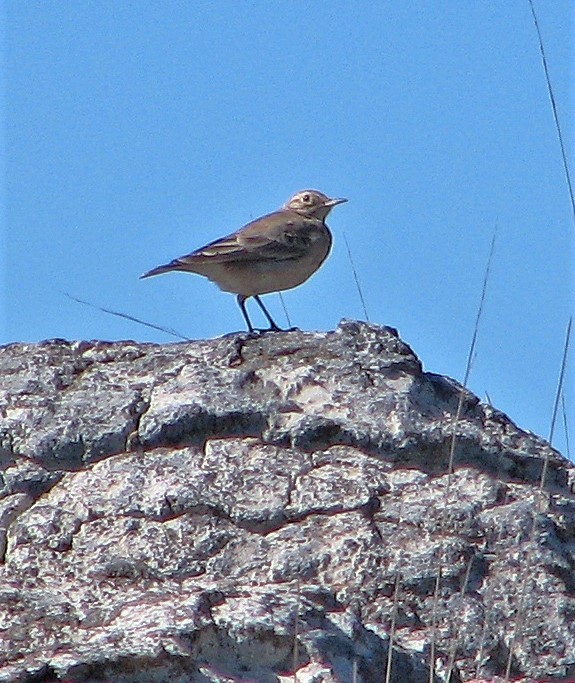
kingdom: Animalia
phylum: Chordata
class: Aves
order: Passeriformes
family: Furnariidae
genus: Geositta
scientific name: Geositta rufipennis
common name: Rufous-banded miner
